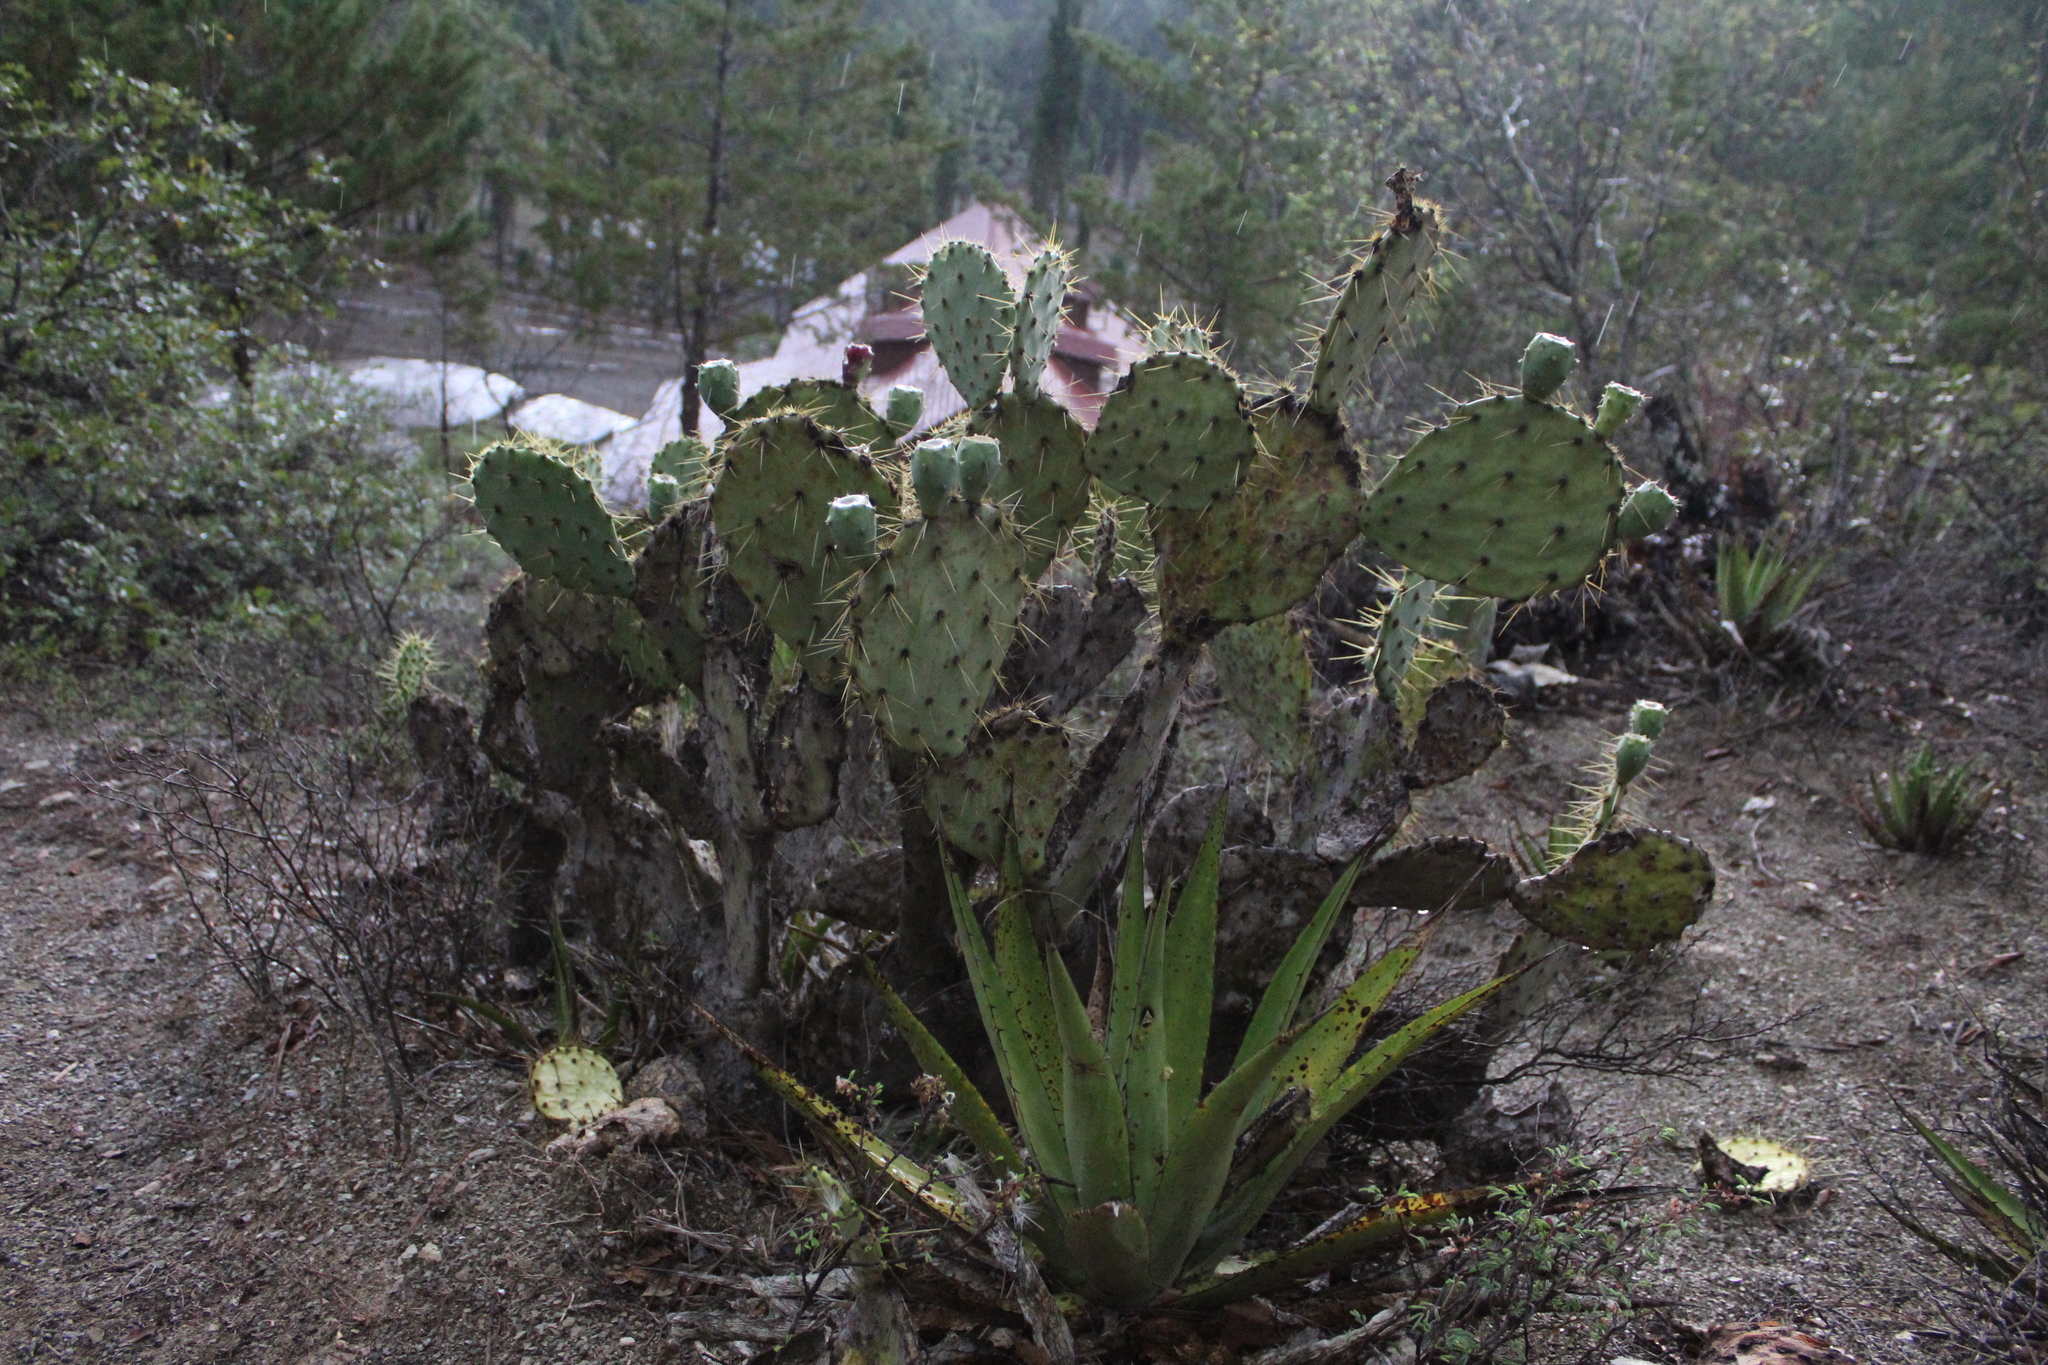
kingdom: Plantae
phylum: Tracheophyta
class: Magnoliopsida
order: Caryophyllales
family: Cactaceae
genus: Opuntia
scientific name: Opuntia engelmannii
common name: Cactus-apple
